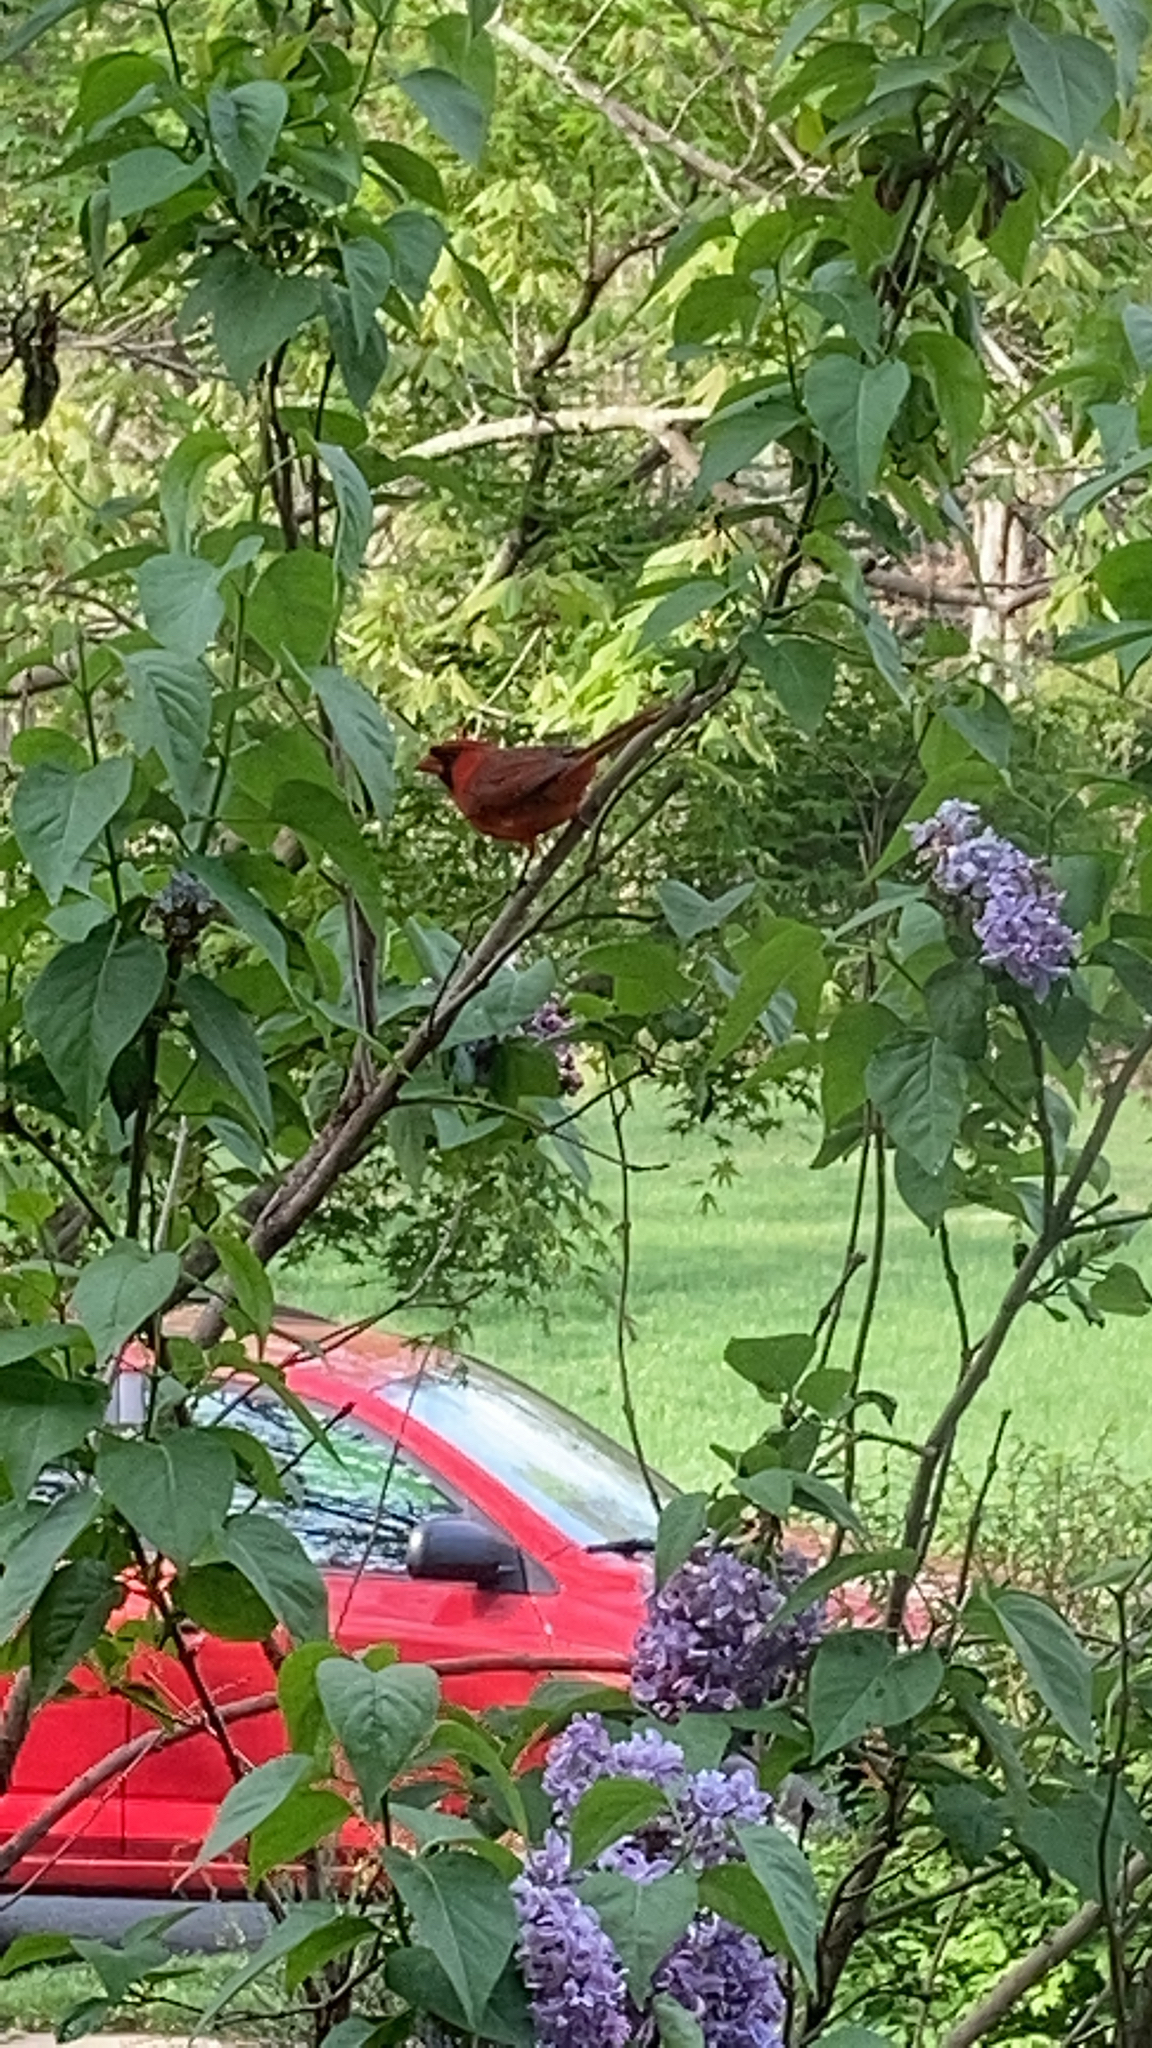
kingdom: Animalia
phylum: Chordata
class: Aves
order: Passeriformes
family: Cardinalidae
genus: Cardinalis
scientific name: Cardinalis cardinalis
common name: Northern cardinal
